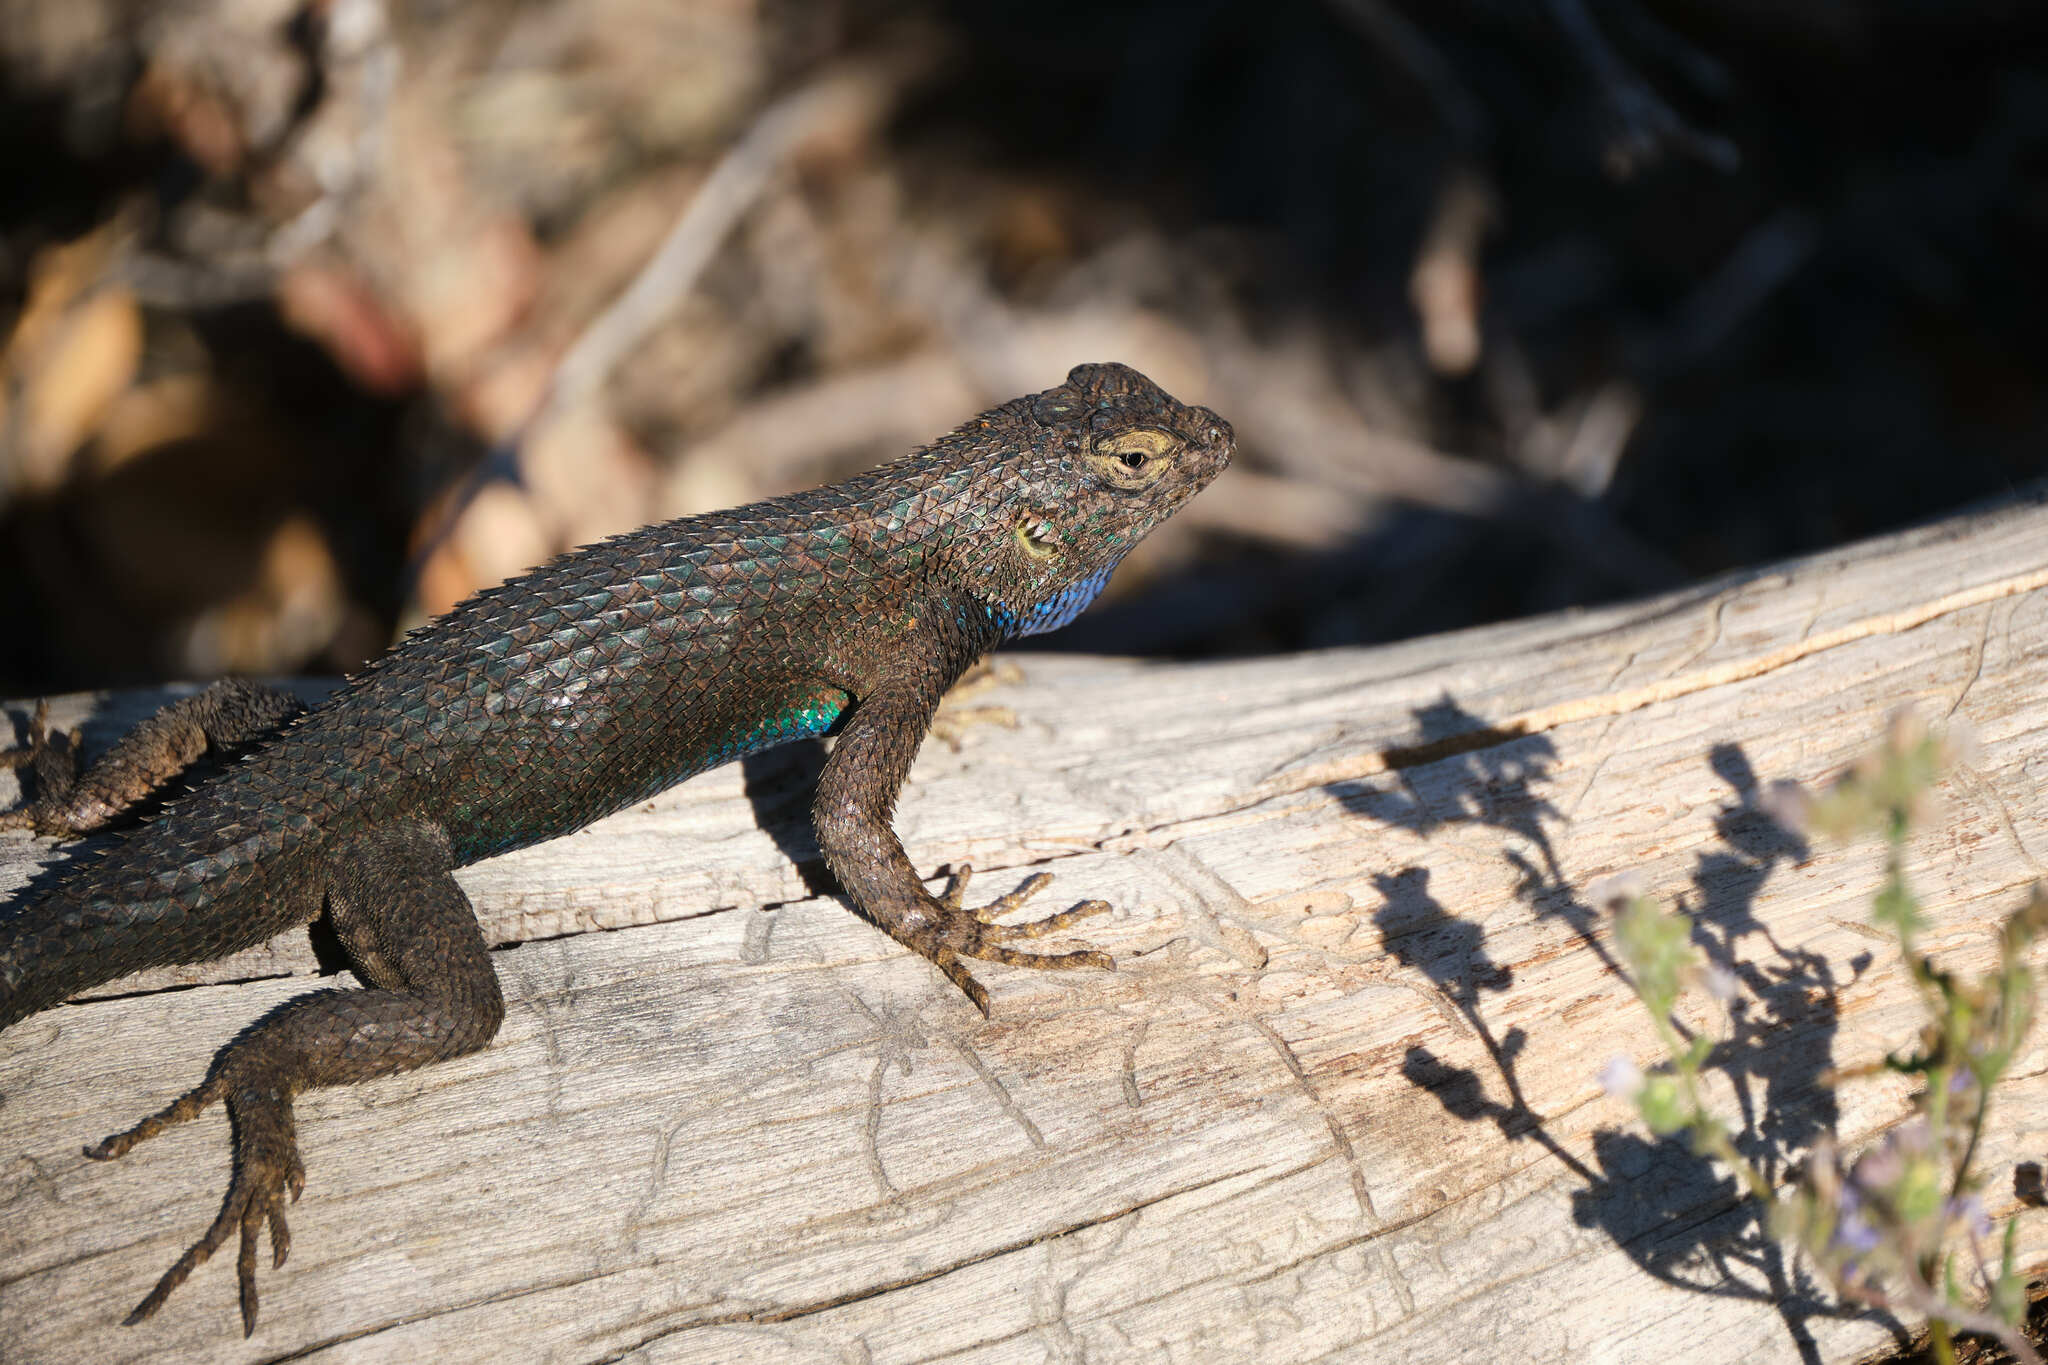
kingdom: Animalia
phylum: Chordata
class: Squamata
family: Phrynosomatidae
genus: Sceloporus
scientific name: Sceloporus occidentalis
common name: Western fence lizard
